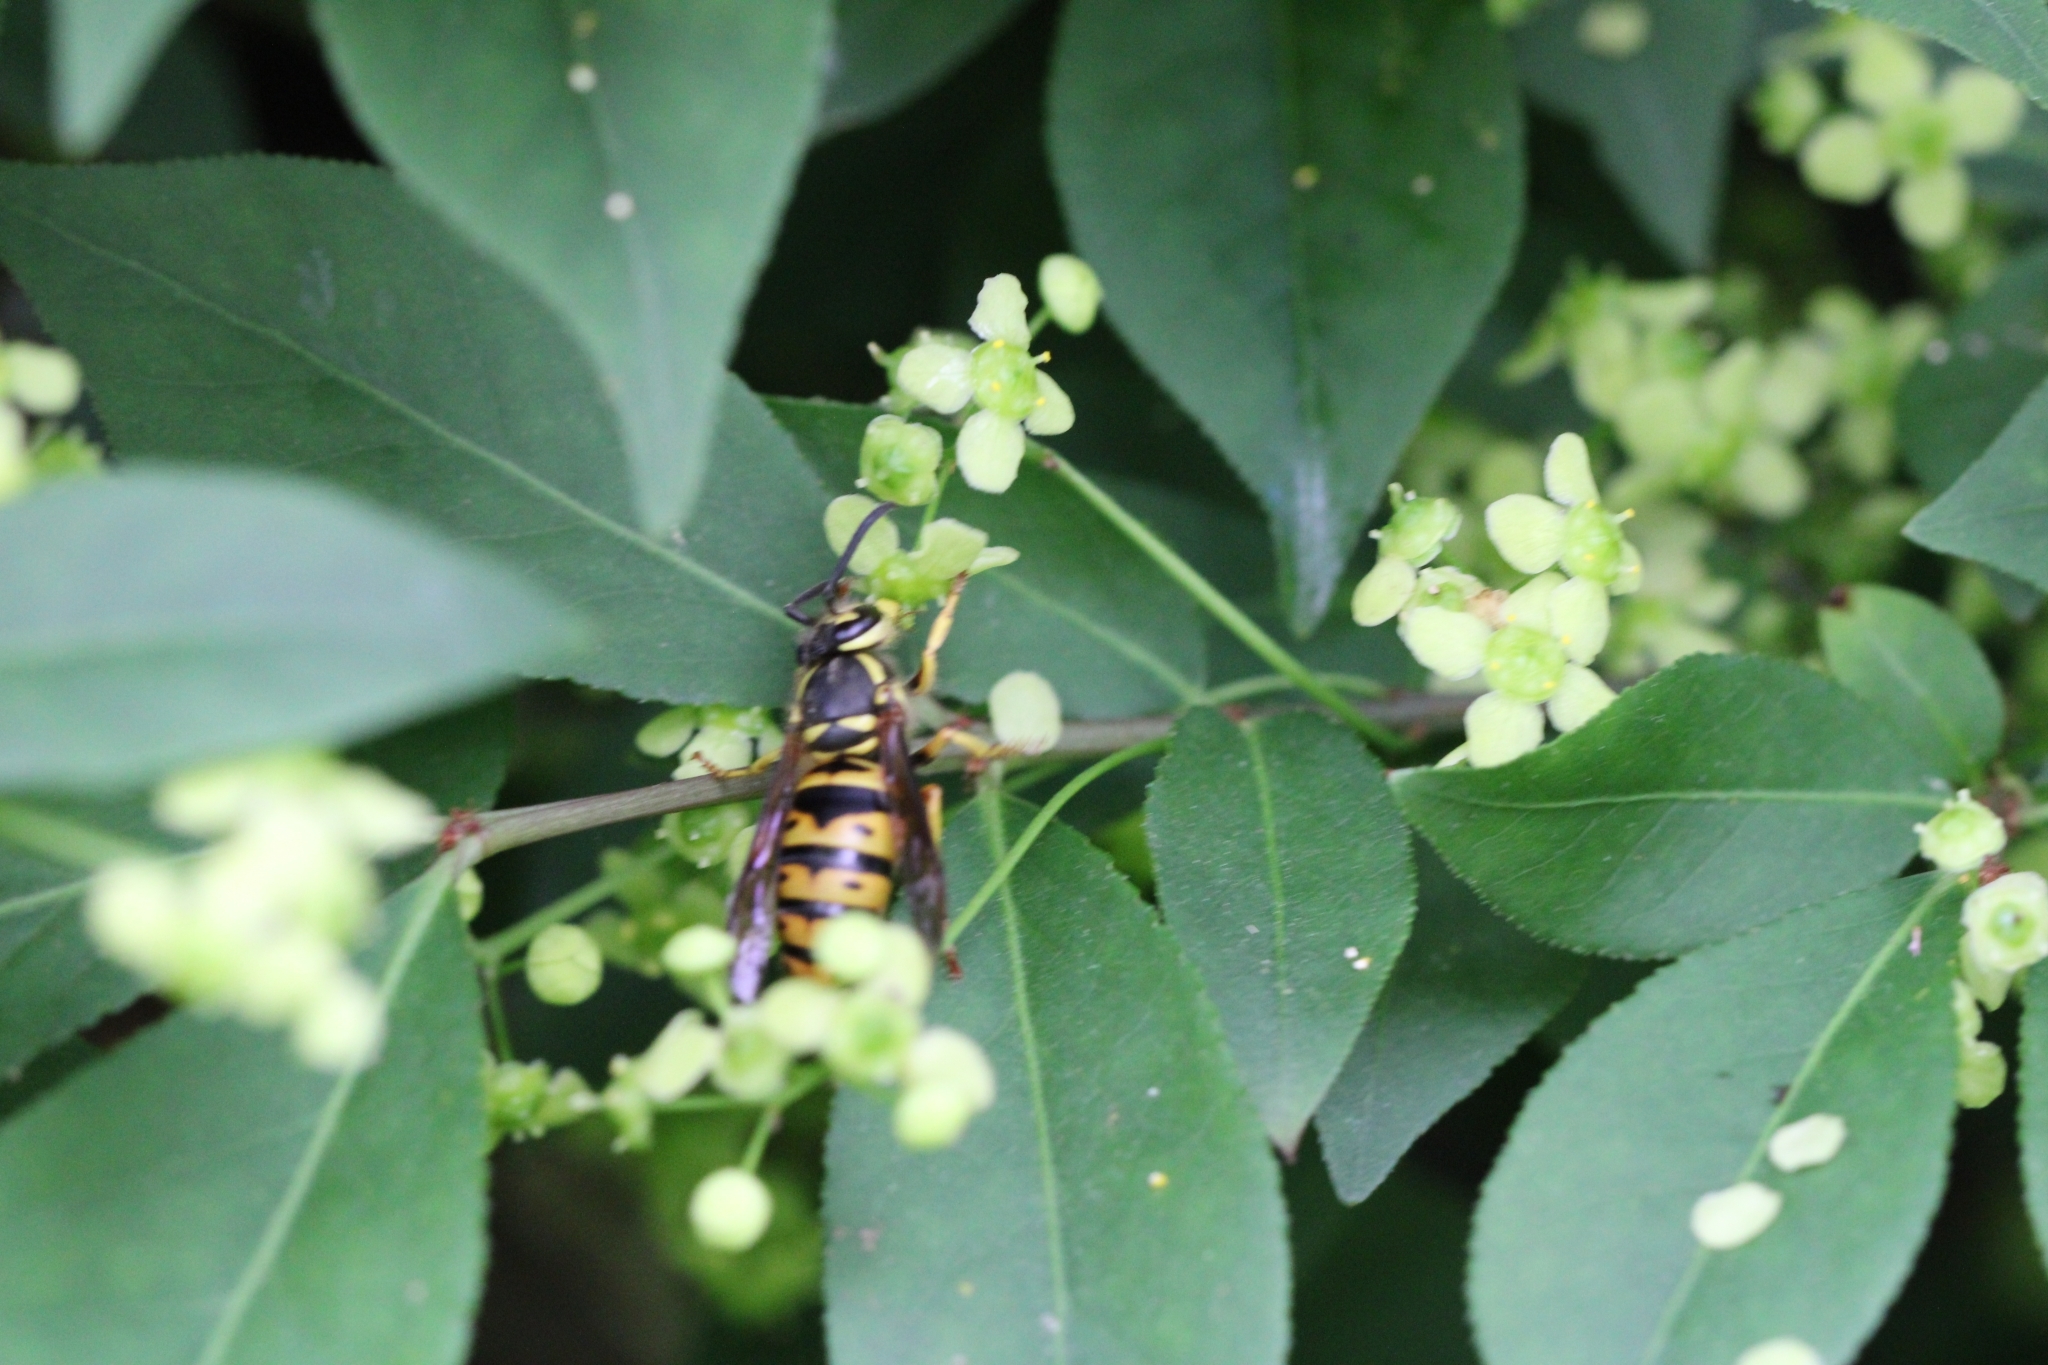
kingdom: Animalia
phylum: Arthropoda
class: Insecta
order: Hymenoptera
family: Vespidae
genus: Vespula
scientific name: Vespula maculifrons
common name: Eastern yellowjacket
